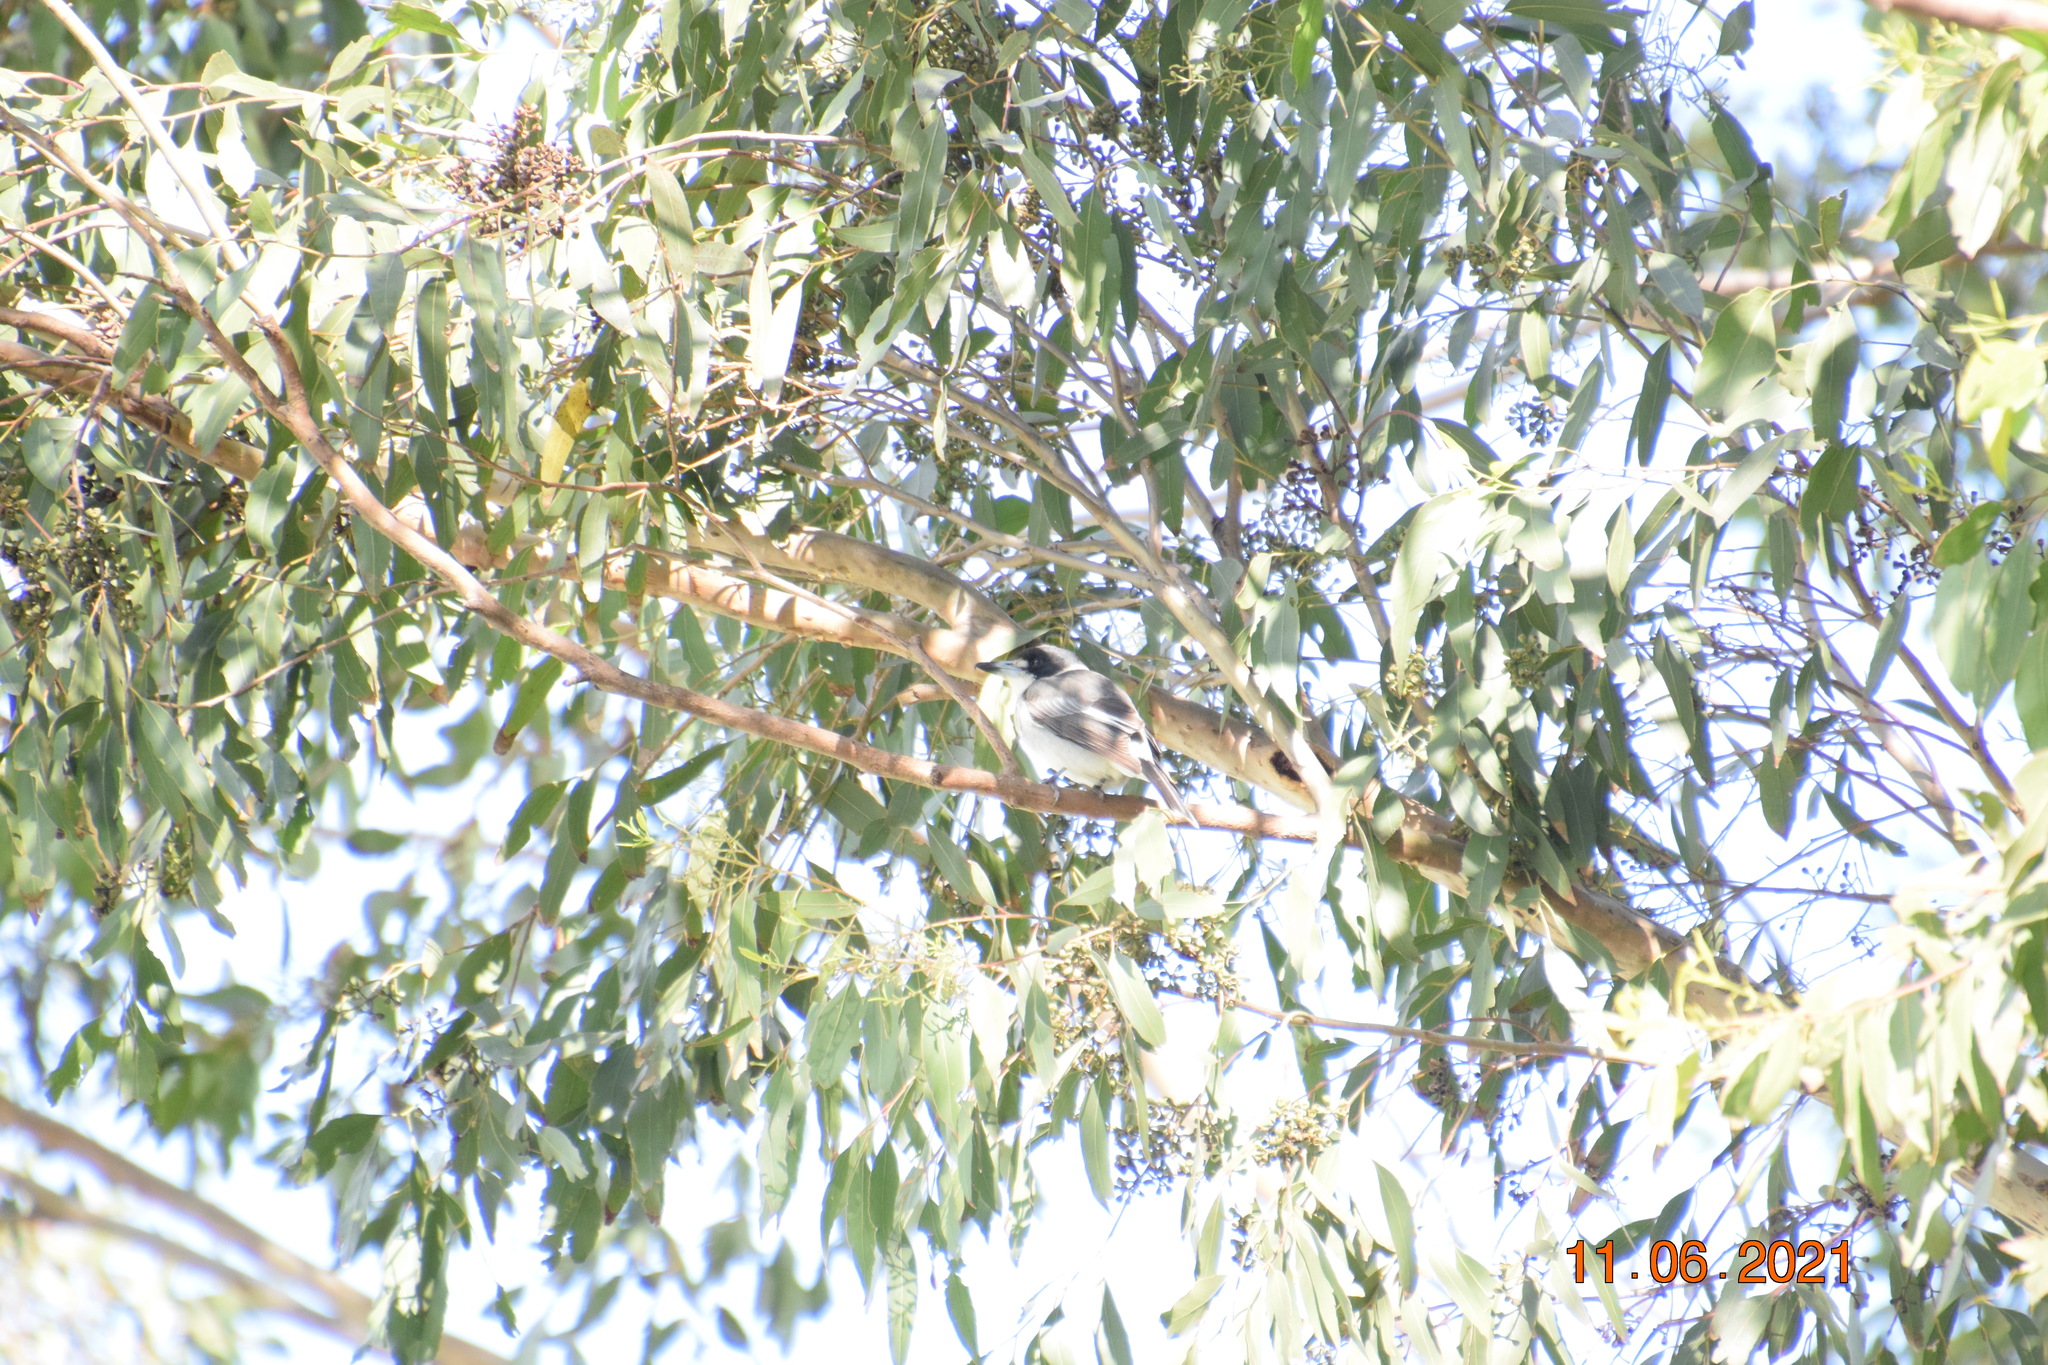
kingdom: Animalia
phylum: Chordata
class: Aves
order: Passeriformes
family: Cracticidae
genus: Cracticus
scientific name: Cracticus torquatus
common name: Grey butcherbird
